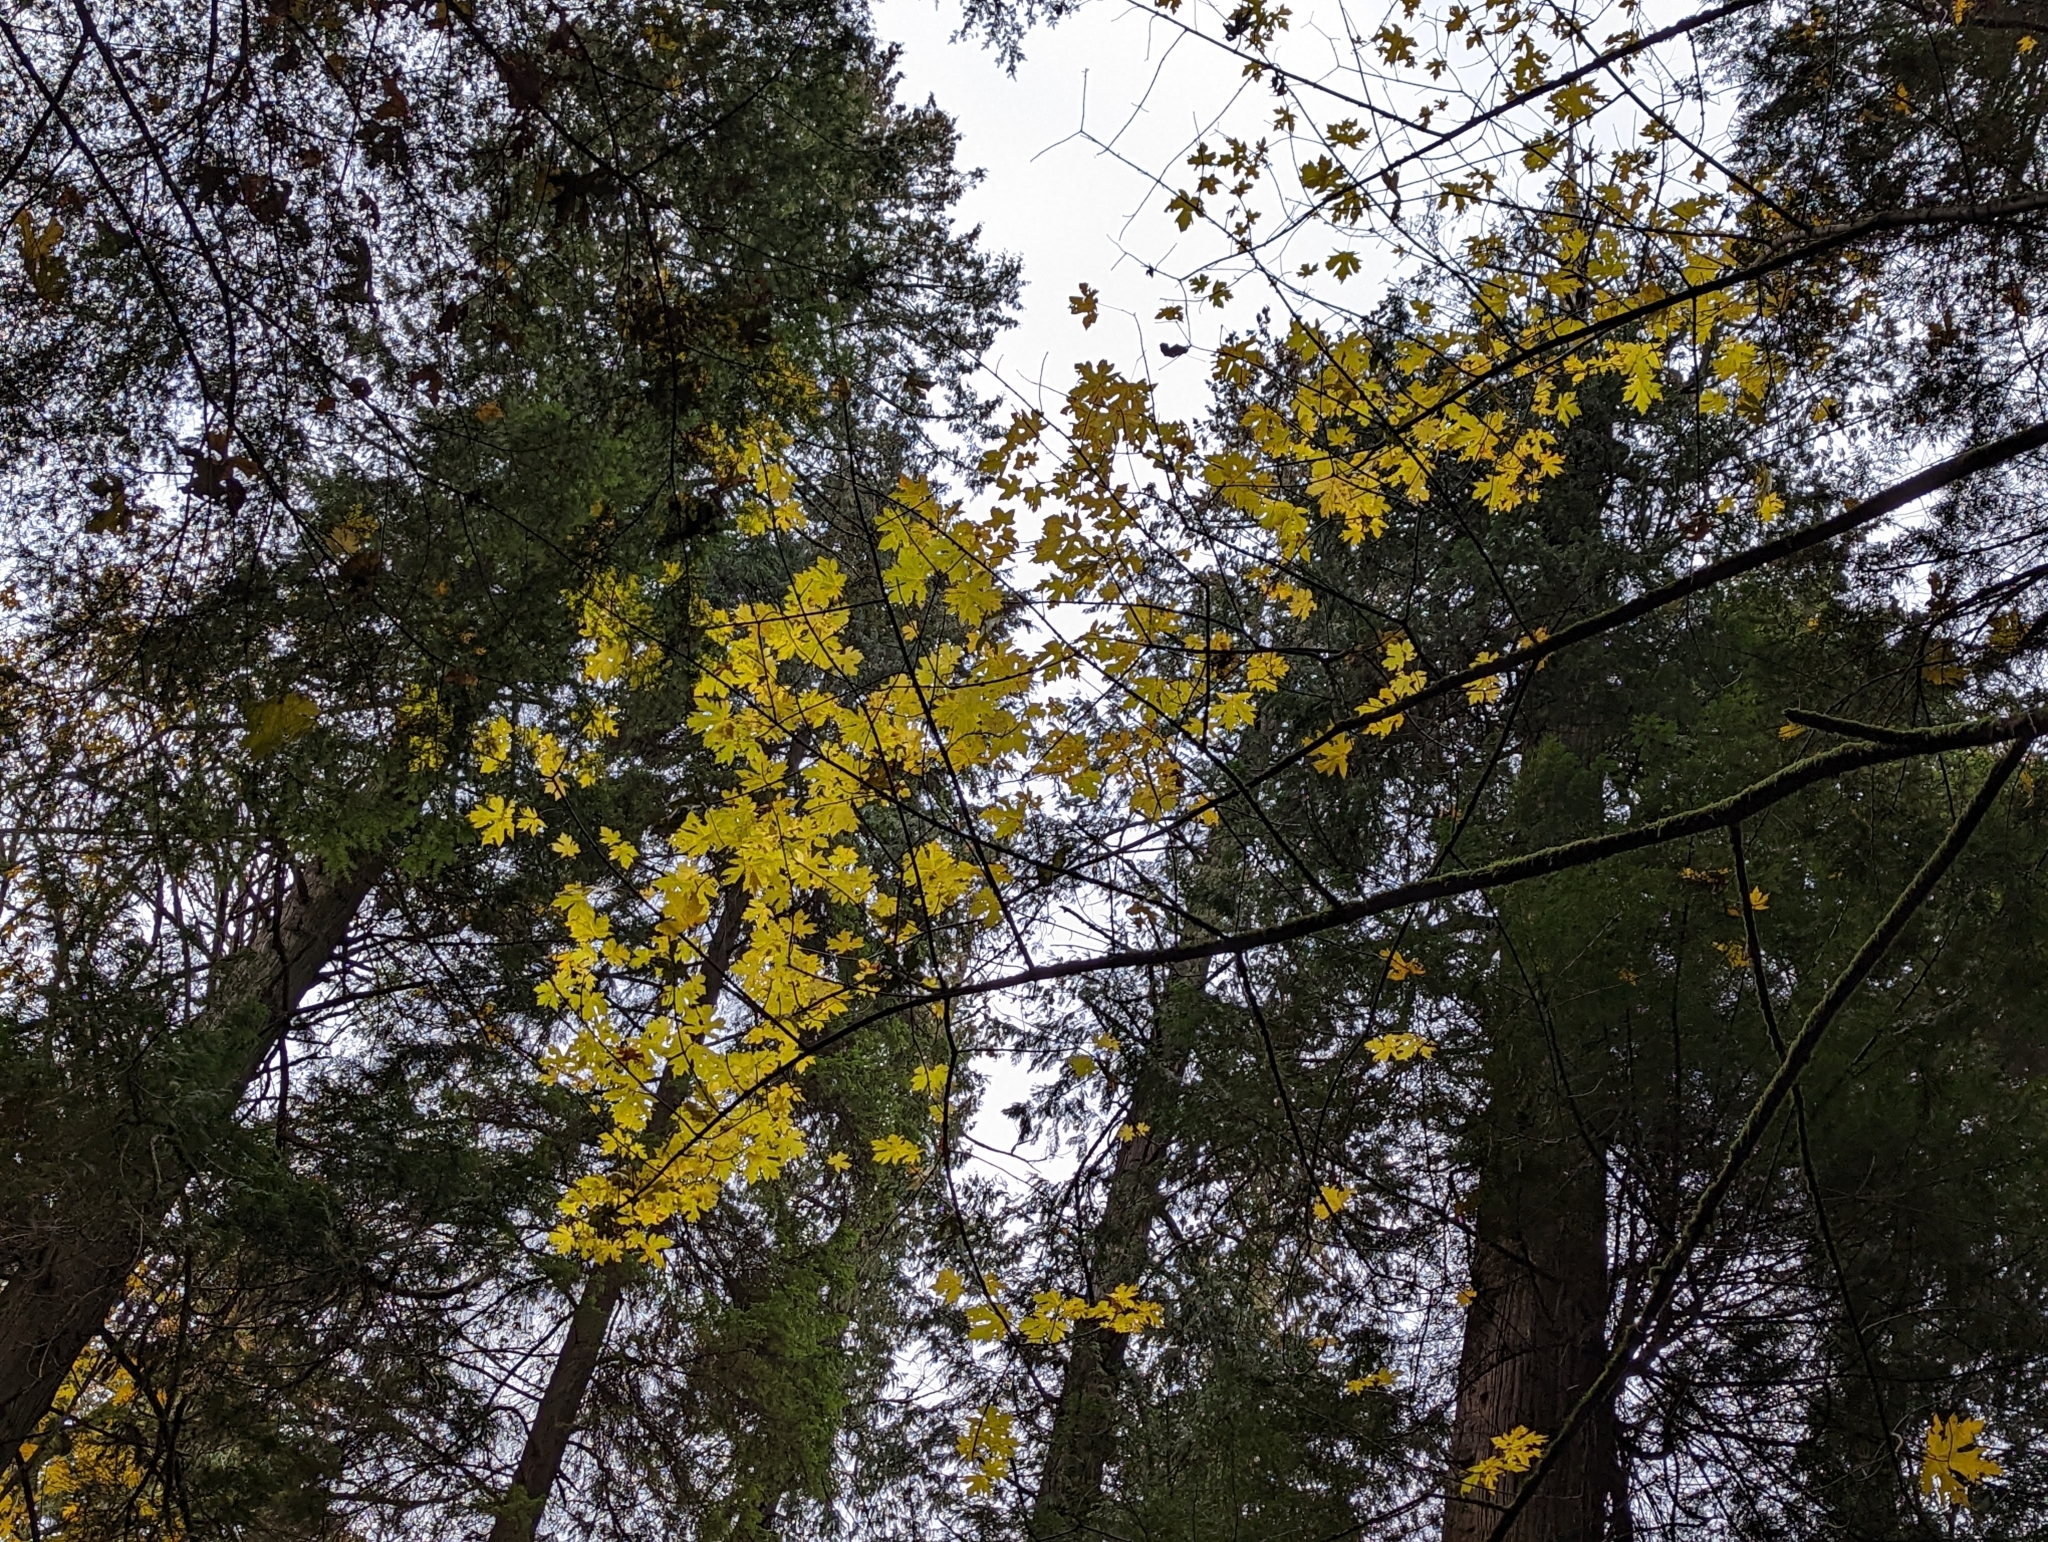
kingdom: Plantae
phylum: Tracheophyta
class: Magnoliopsida
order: Sapindales
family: Sapindaceae
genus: Acer
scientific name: Acer macrophyllum
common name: Oregon maple
